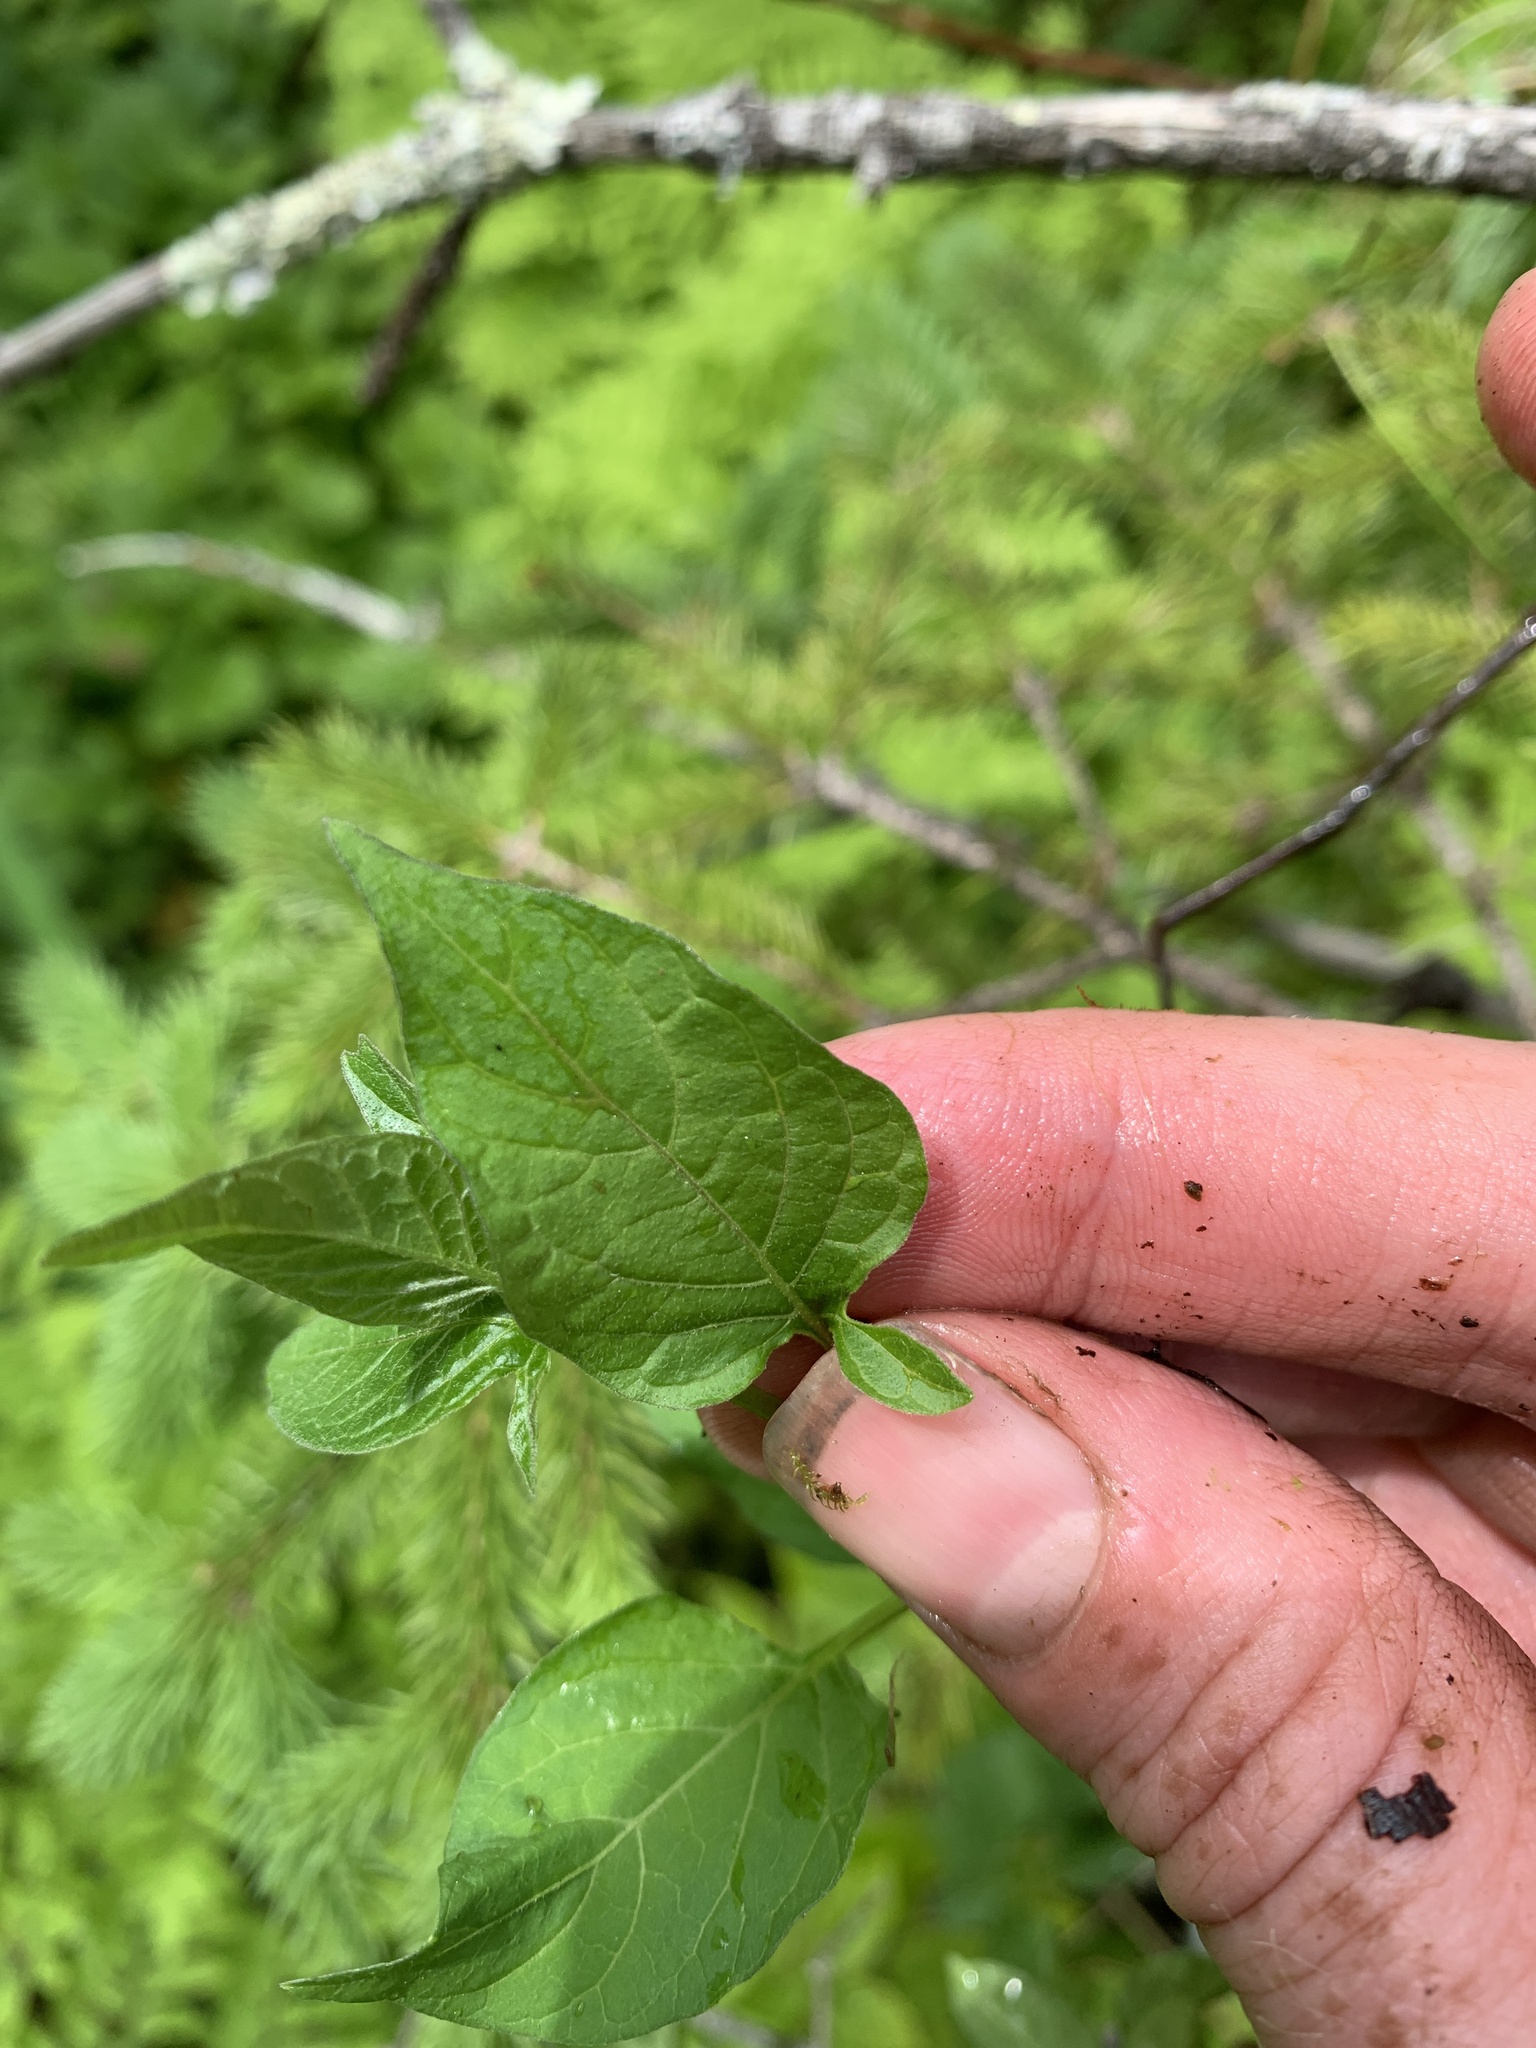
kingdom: Plantae
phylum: Tracheophyta
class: Magnoliopsida
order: Solanales
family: Solanaceae
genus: Solanum
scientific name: Solanum dulcamara
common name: Climbing nightshade
